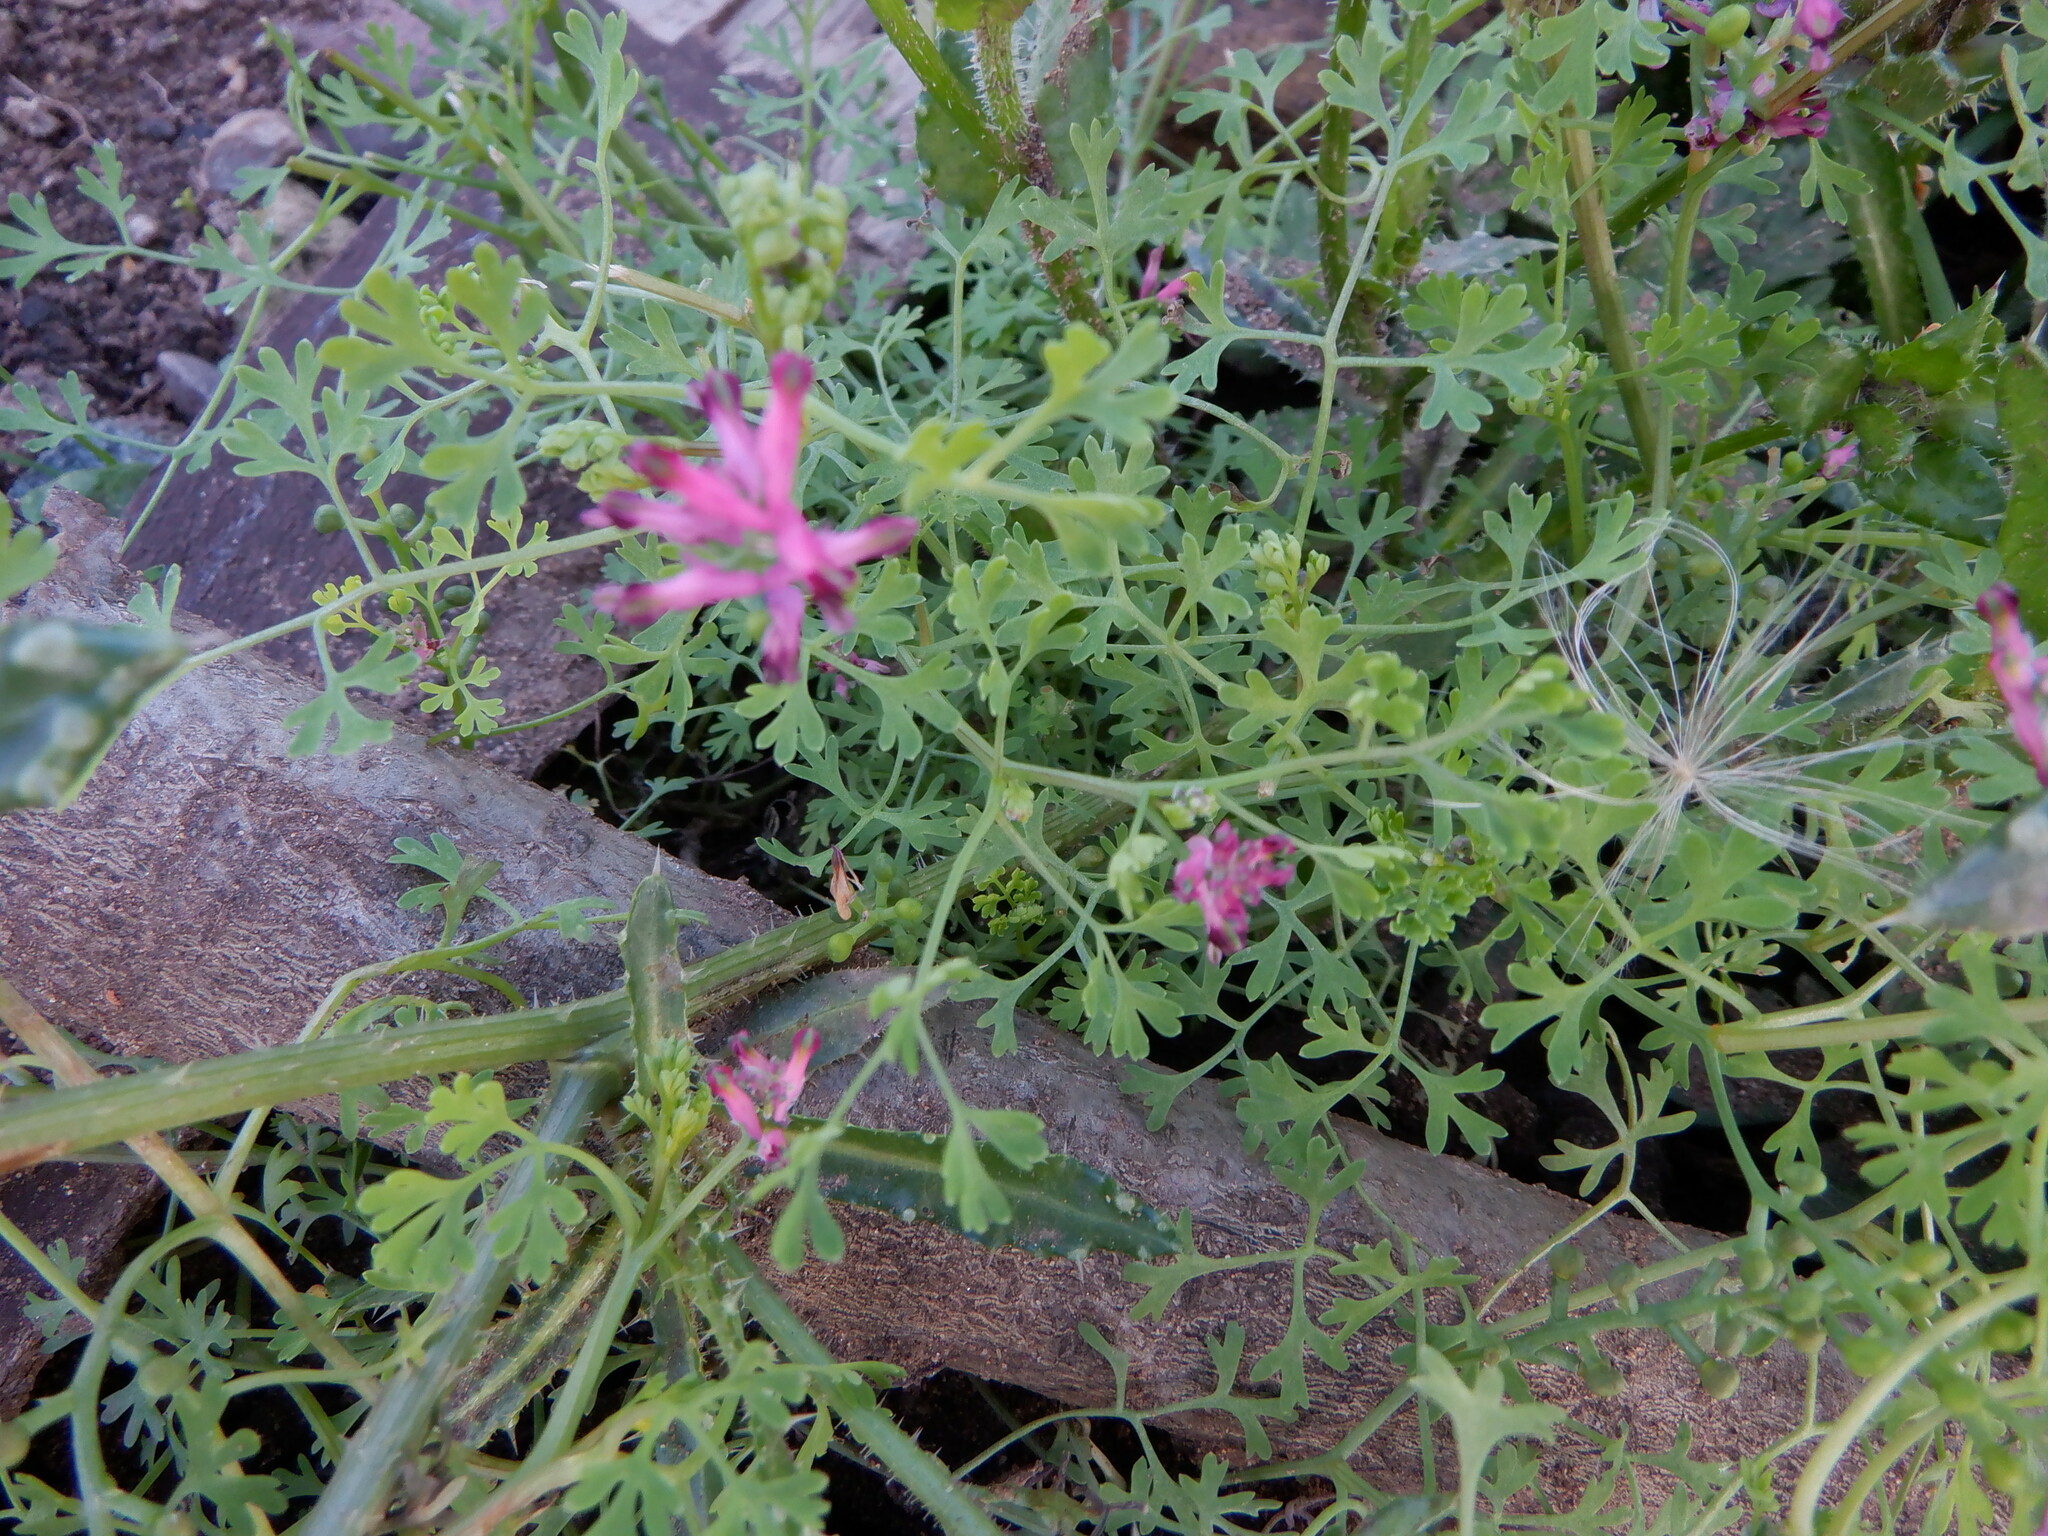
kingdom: Plantae
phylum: Tracheophyta
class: Magnoliopsida
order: Ranunculales
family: Papaveraceae
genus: Fumaria
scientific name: Fumaria officinalis
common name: Common fumitory
